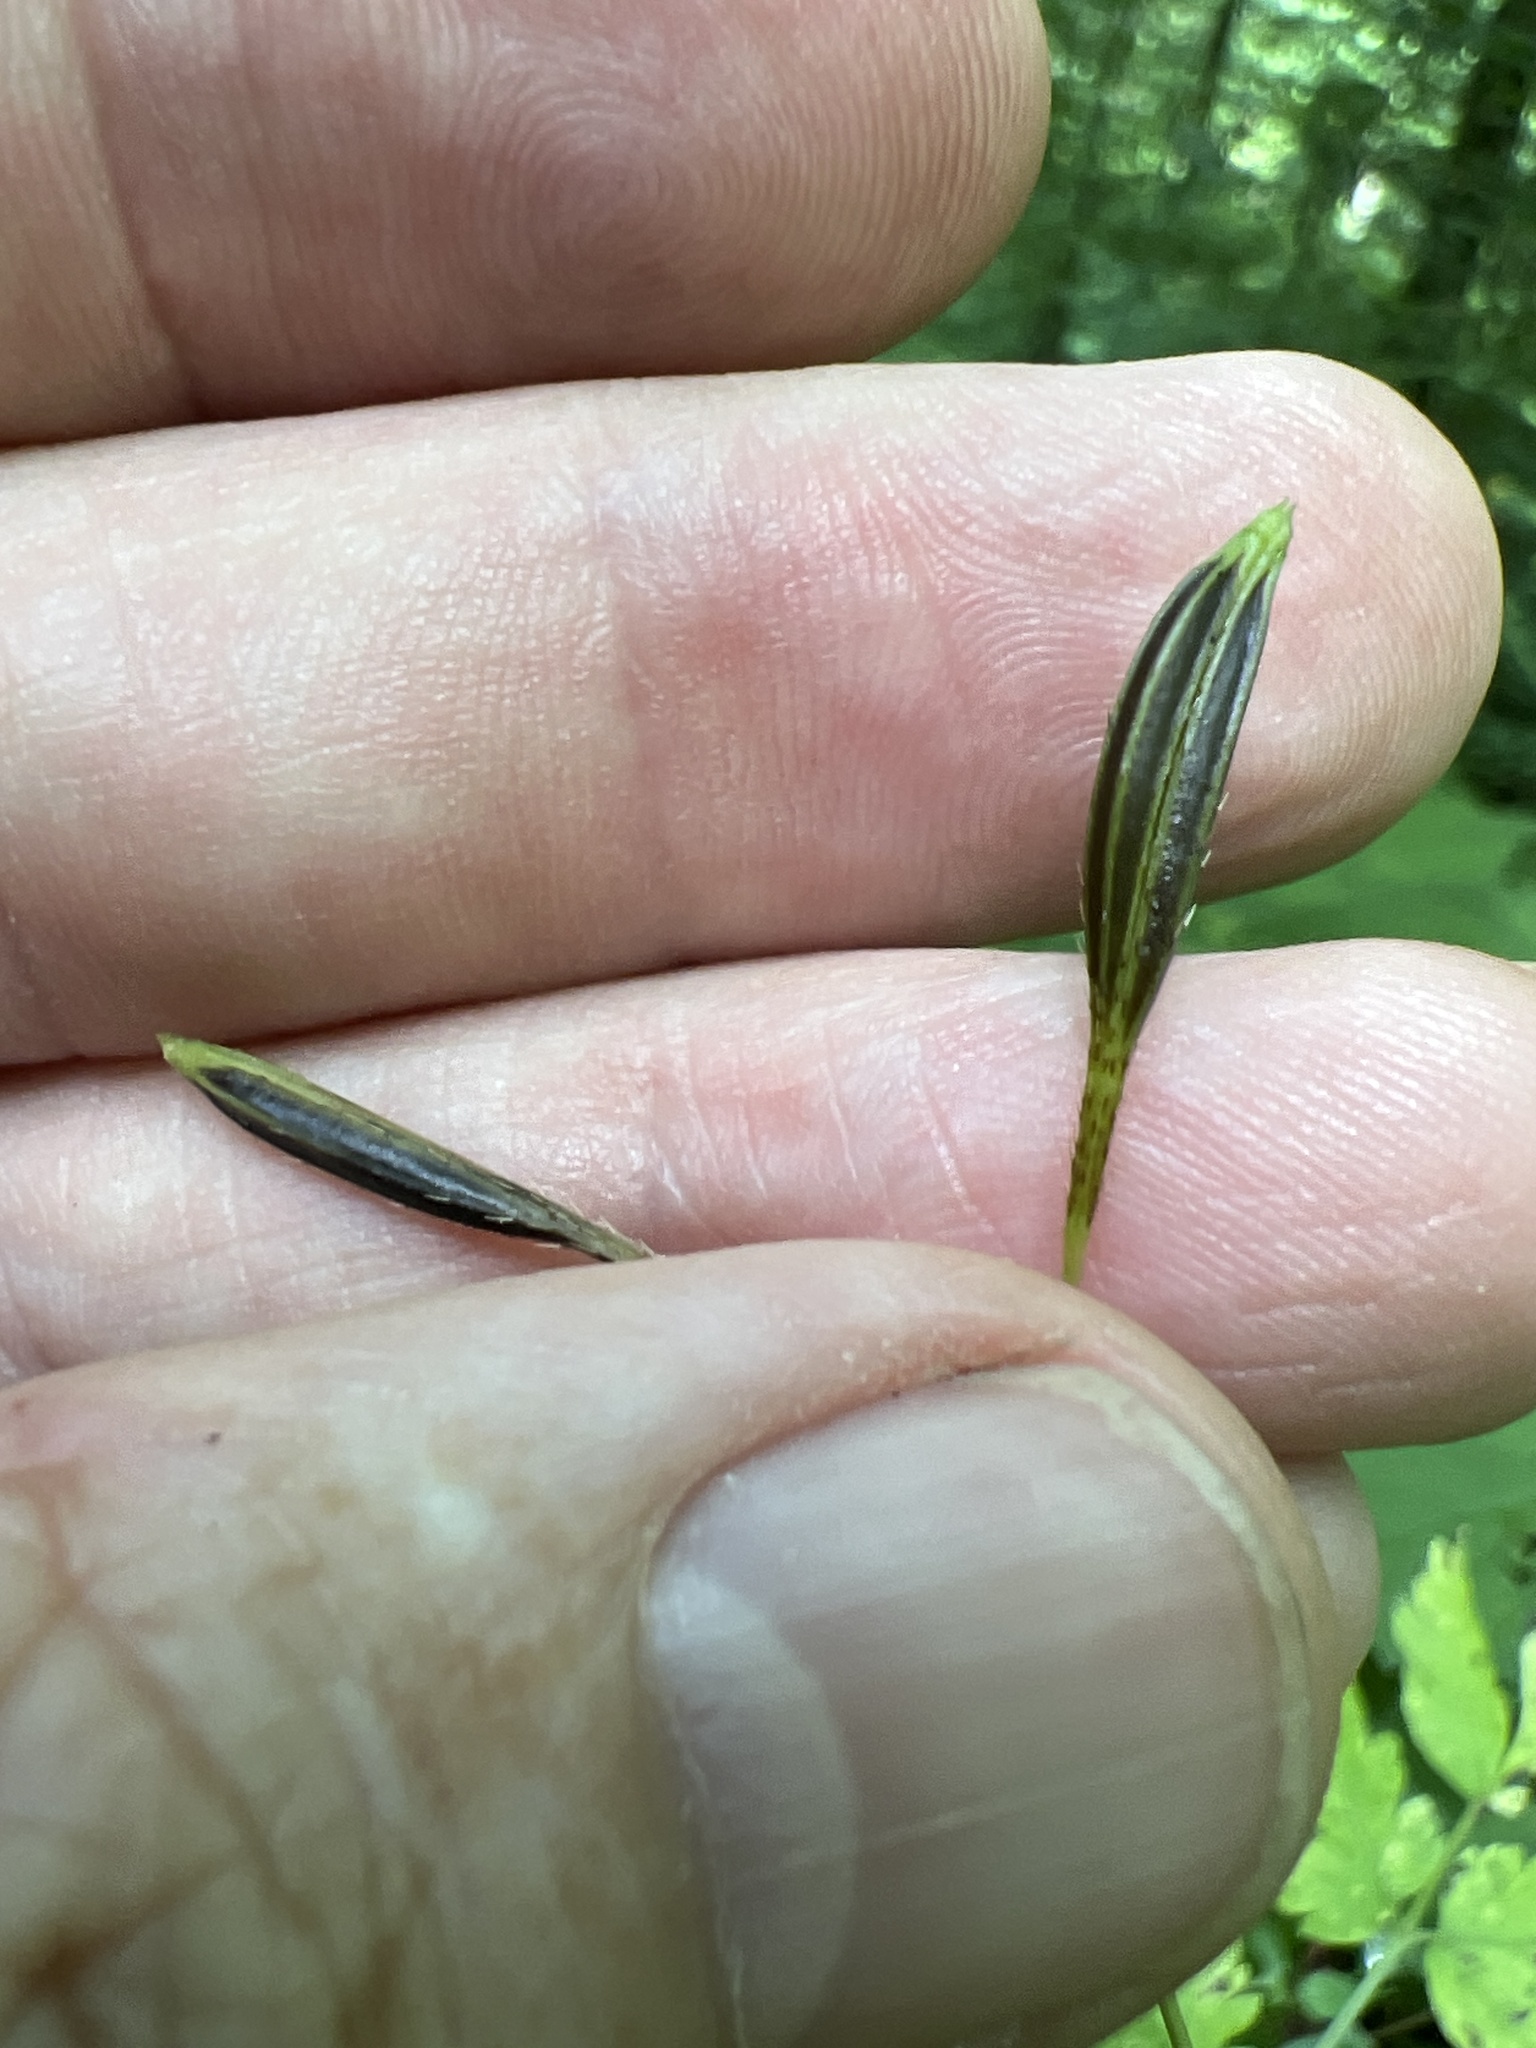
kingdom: Plantae
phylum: Tracheophyta
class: Magnoliopsida
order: Apiales
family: Apiaceae
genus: Osmorhiza
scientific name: Osmorhiza claytonii
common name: Hairy sweet cicely
